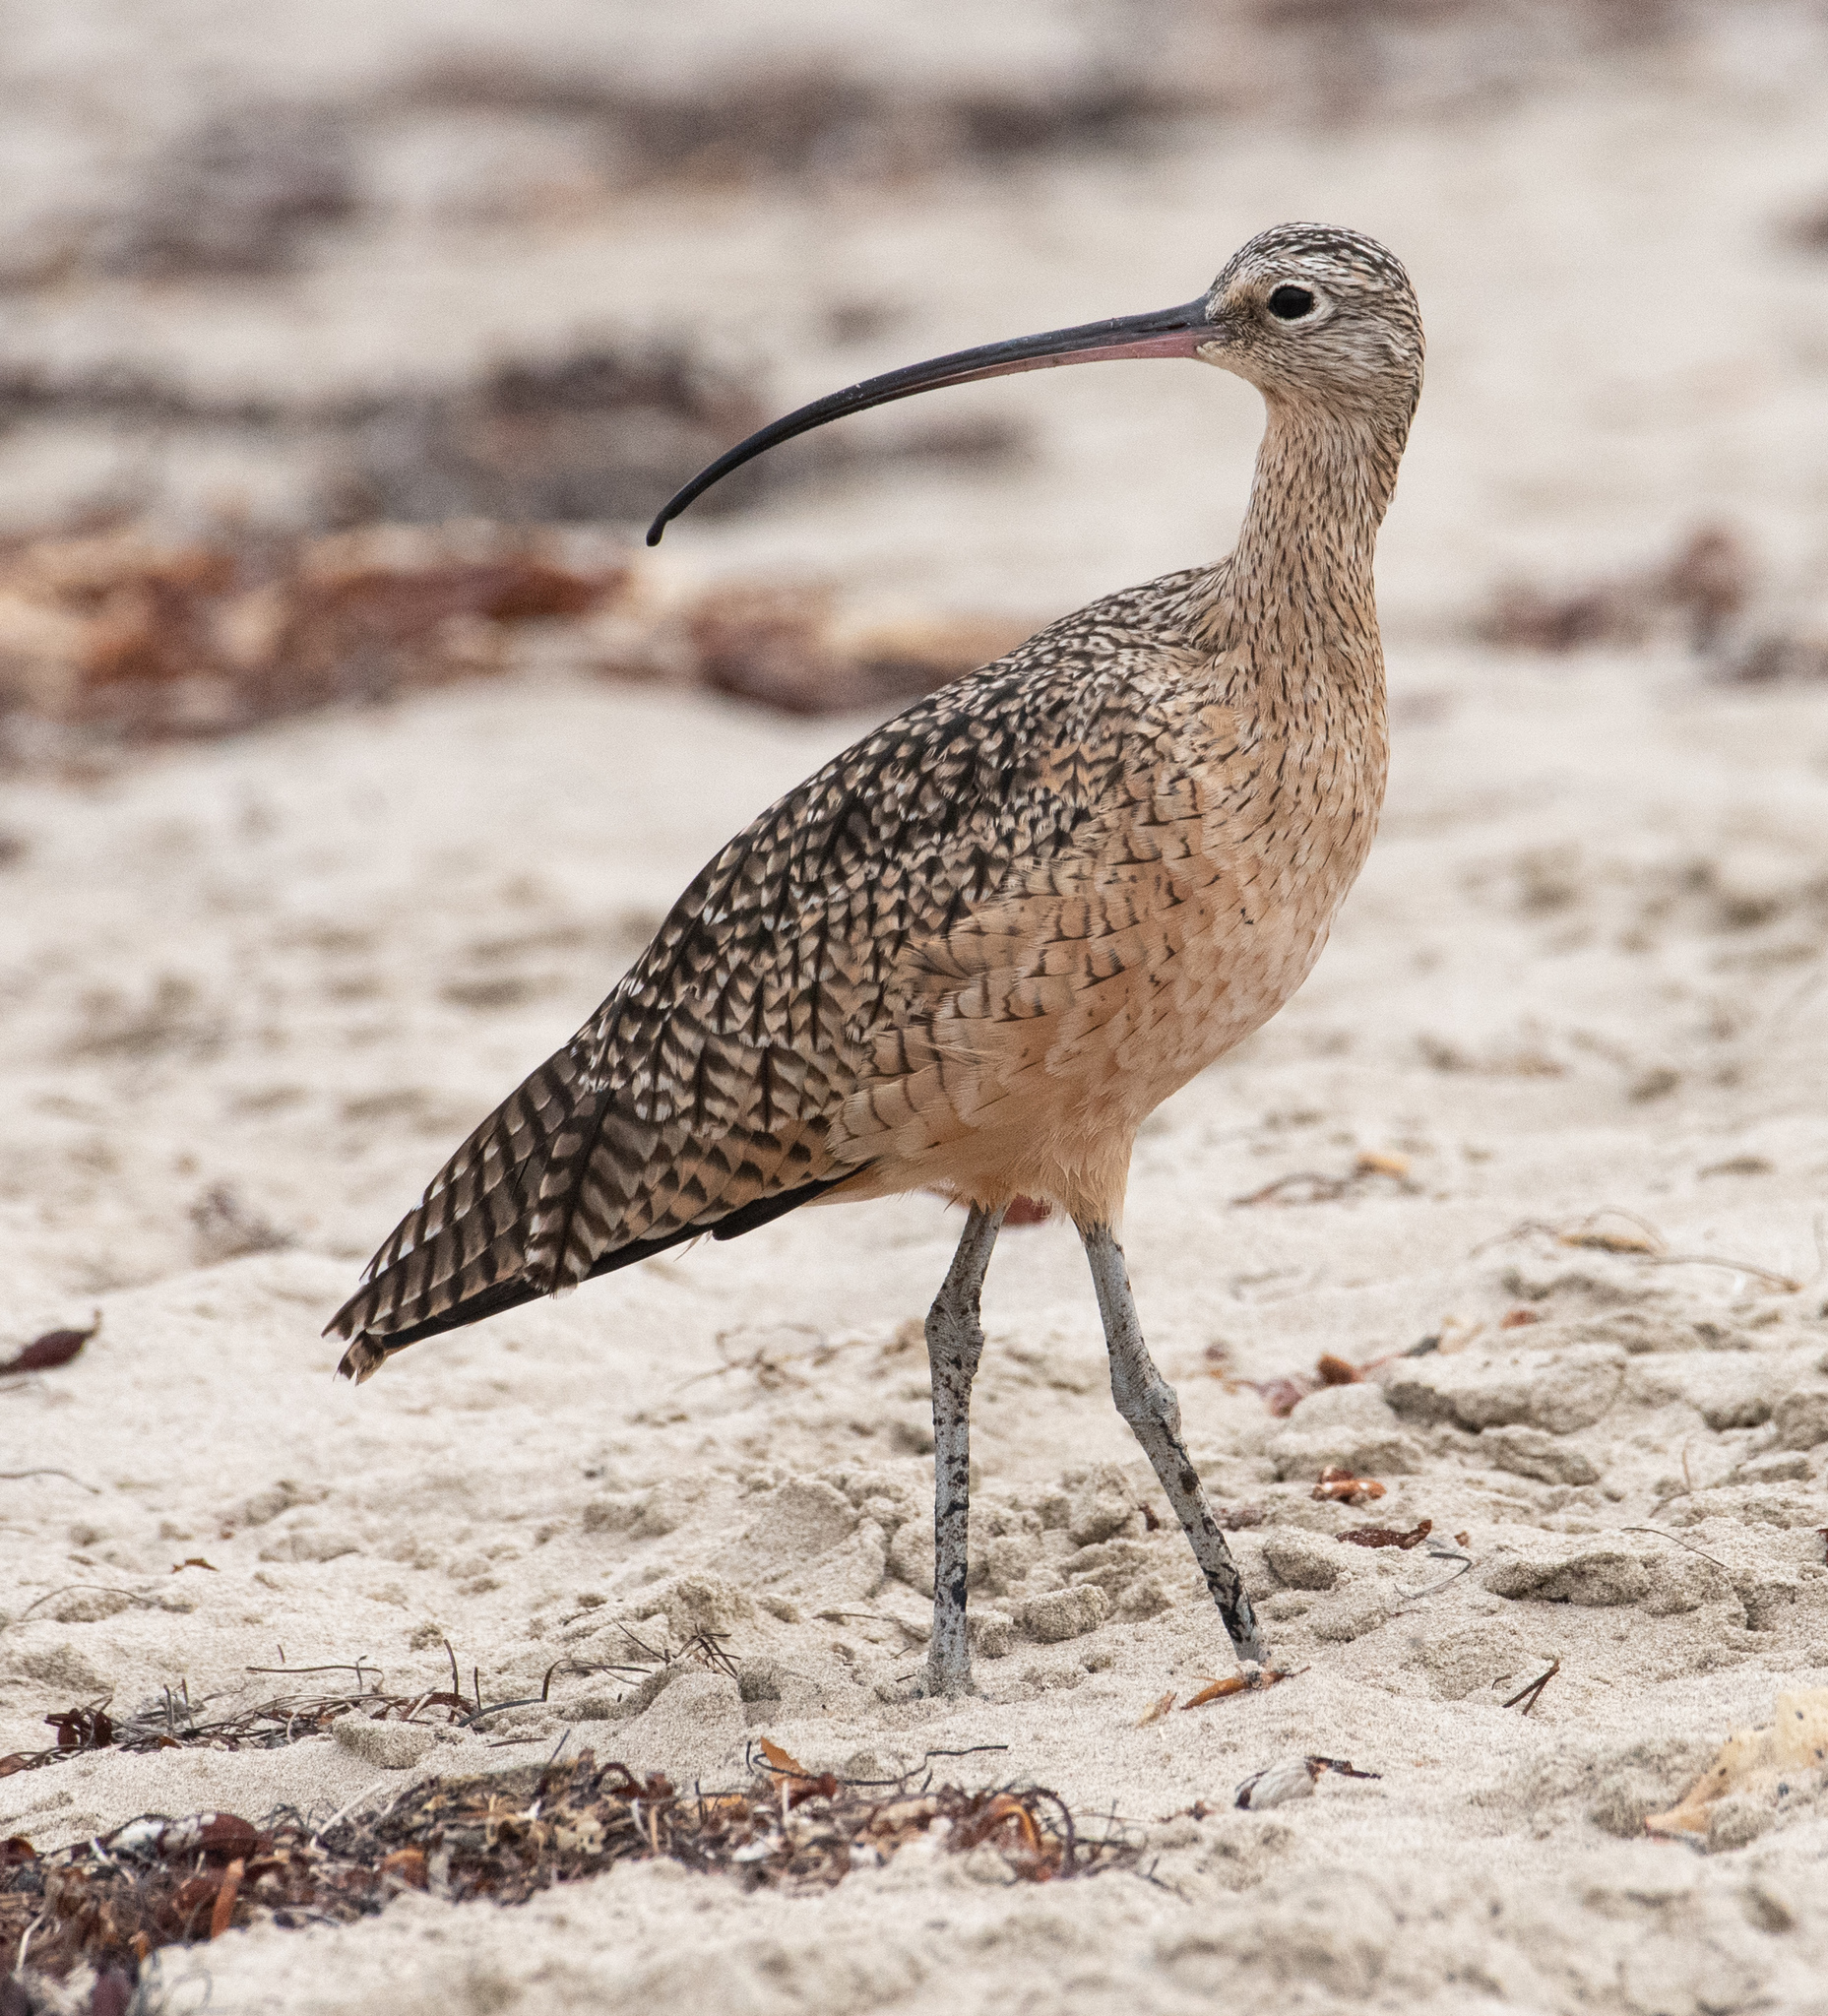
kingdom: Animalia
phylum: Chordata
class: Aves
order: Charadriiformes
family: Scolopacidae
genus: Numenius
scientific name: Numenius americanus
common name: Long-billed curlew
